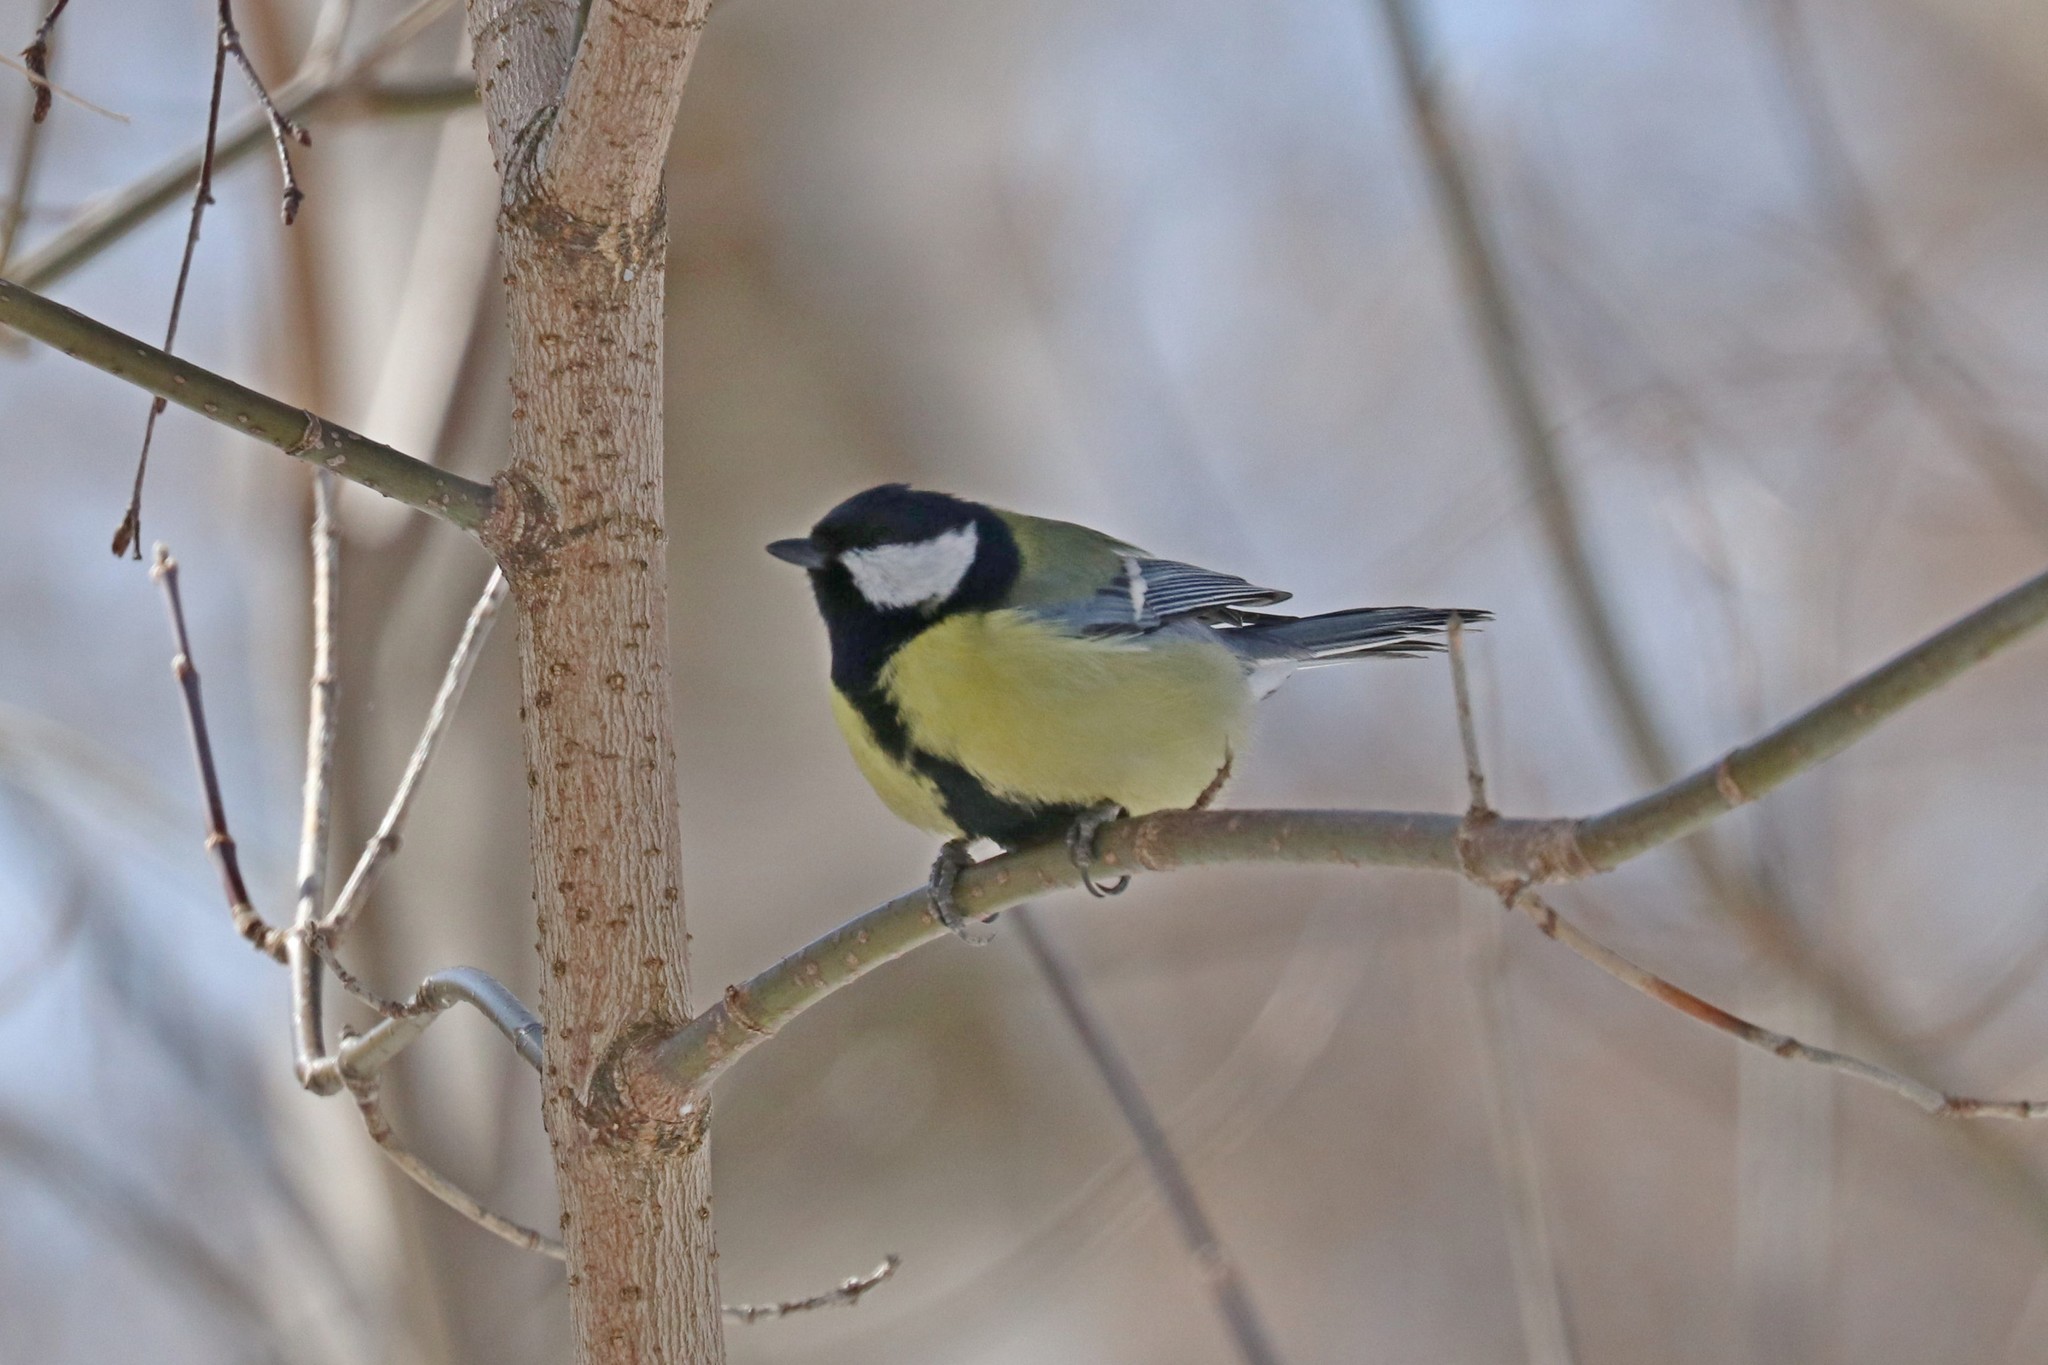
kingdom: Animalia
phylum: Chordata
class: Aves
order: Passeriformes
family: Paridae
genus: Parus
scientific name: Parus major
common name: Great tit
